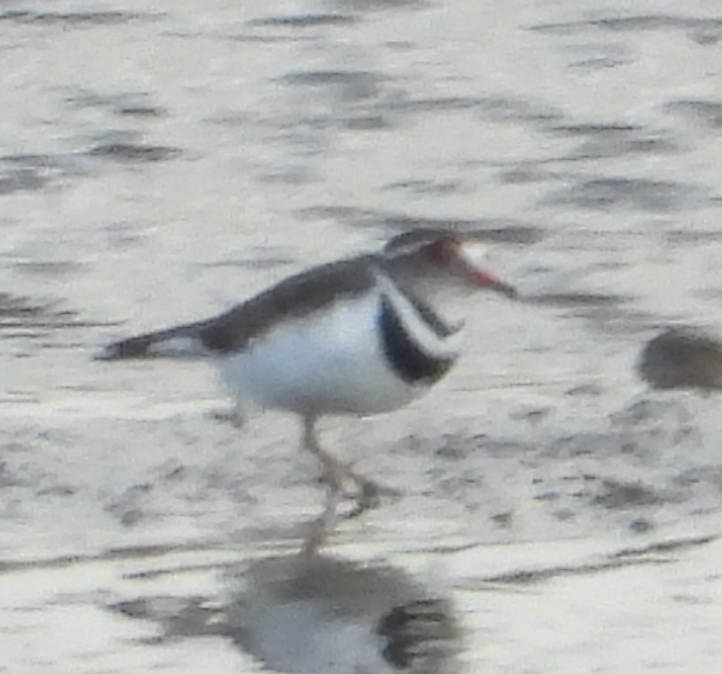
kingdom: Animalia
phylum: Chordata
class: Aves
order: Charadriiformes
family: Charadriidae
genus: Charadrius
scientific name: Charadrius tricollaris
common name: Three-banded plover
